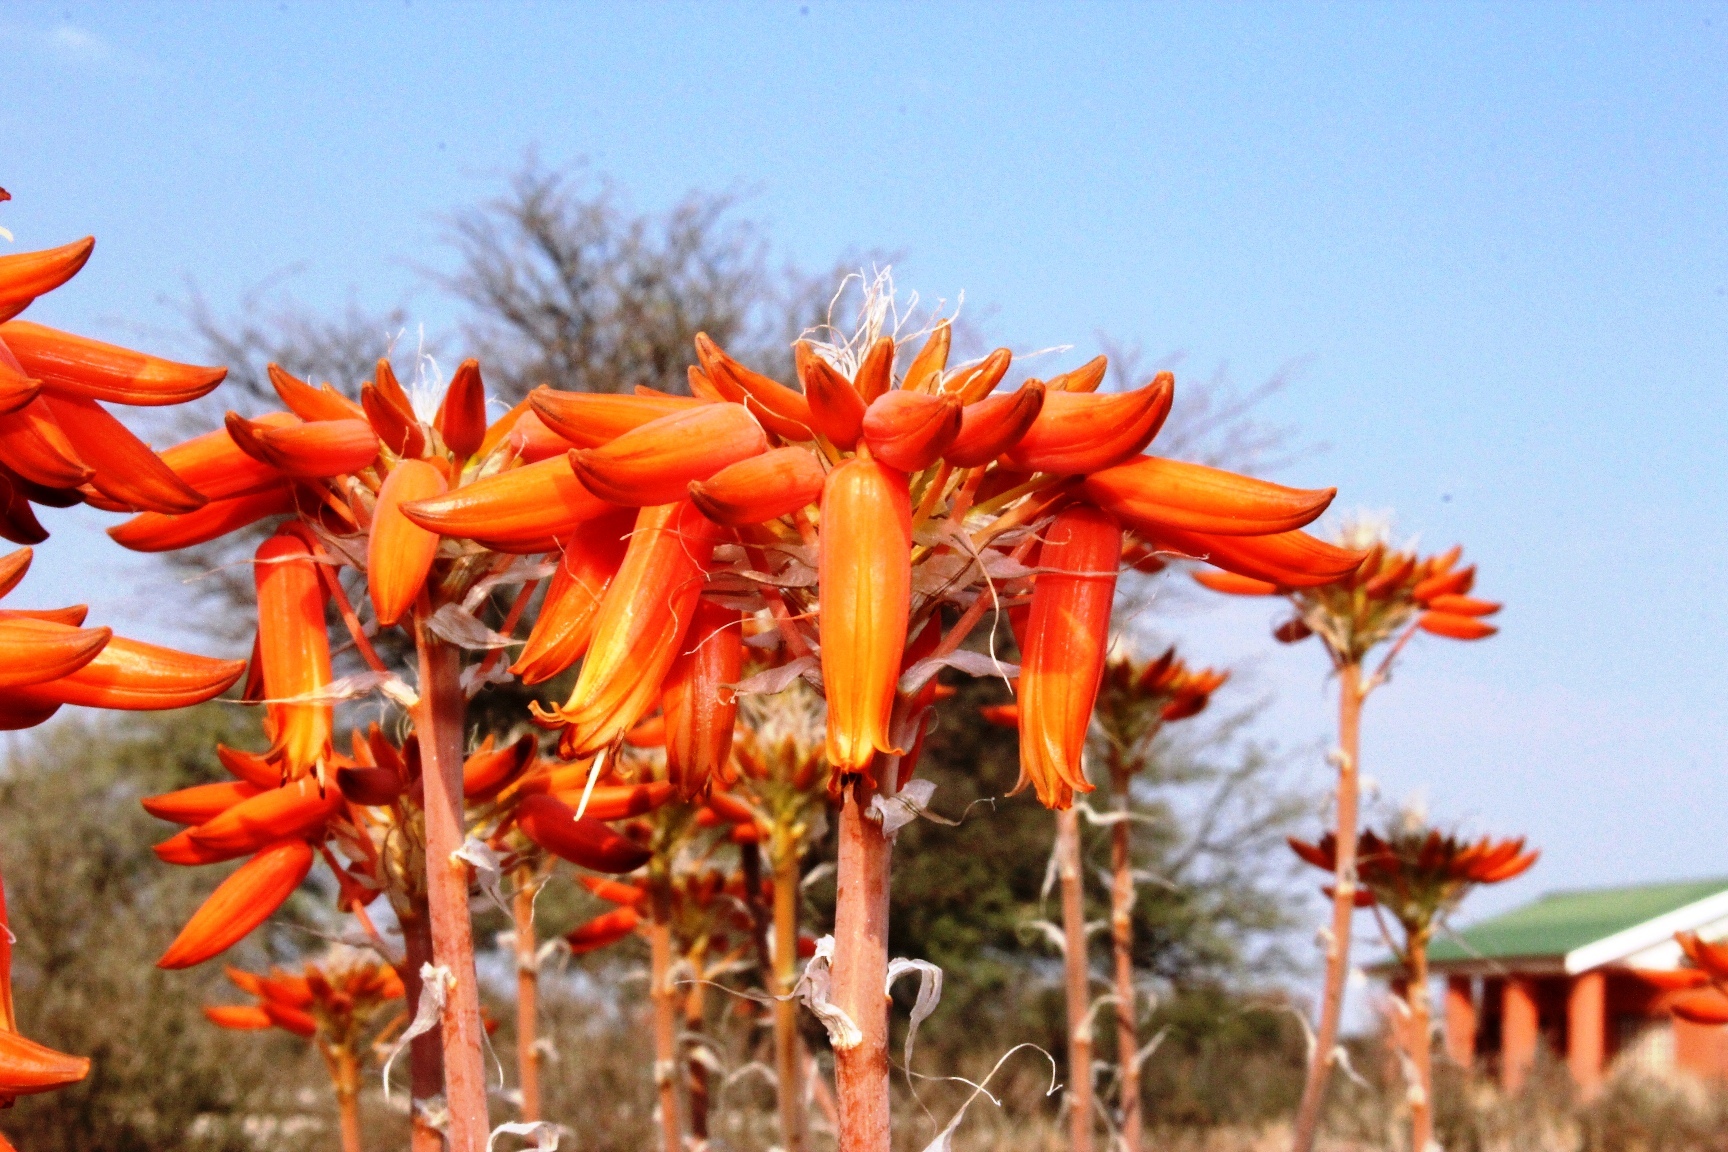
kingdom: Plantae
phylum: Tracheophyta
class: Liliopsida
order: Asparagales
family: Asphodelaceae
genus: Aloe
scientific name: Aloe hereroensis
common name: Herero aloe
